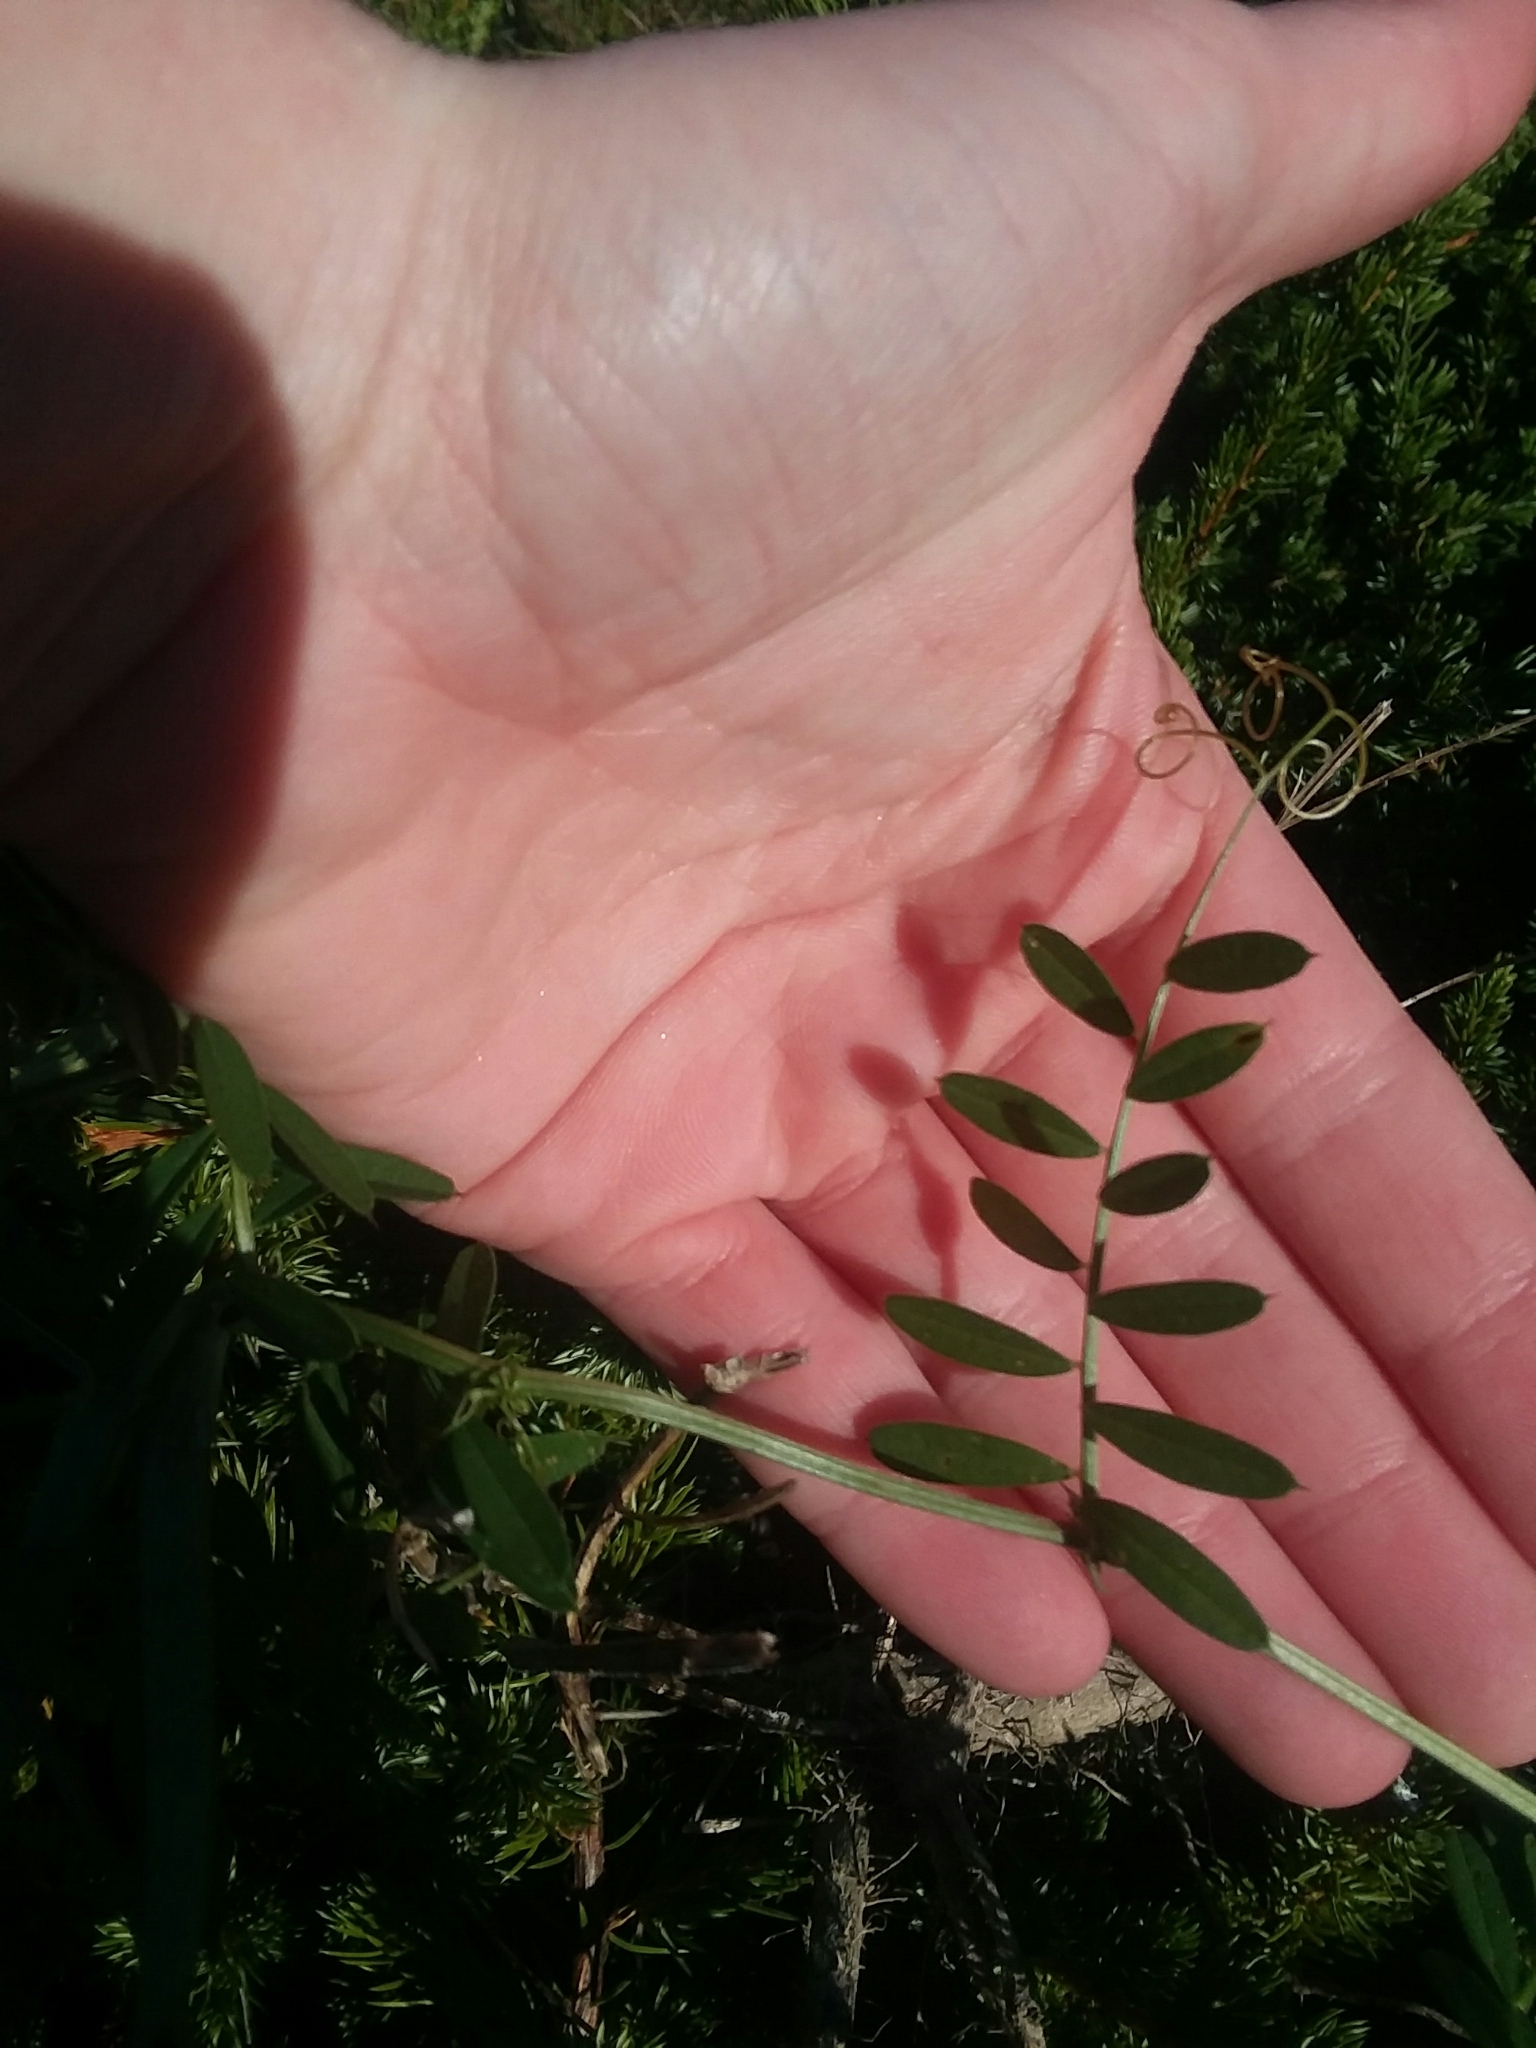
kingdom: Plantae
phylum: Tracheophyta
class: Magnoliopsida
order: Fabales
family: Fabaceae
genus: Vicia
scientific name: Vicia sativa
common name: Garden vetch
